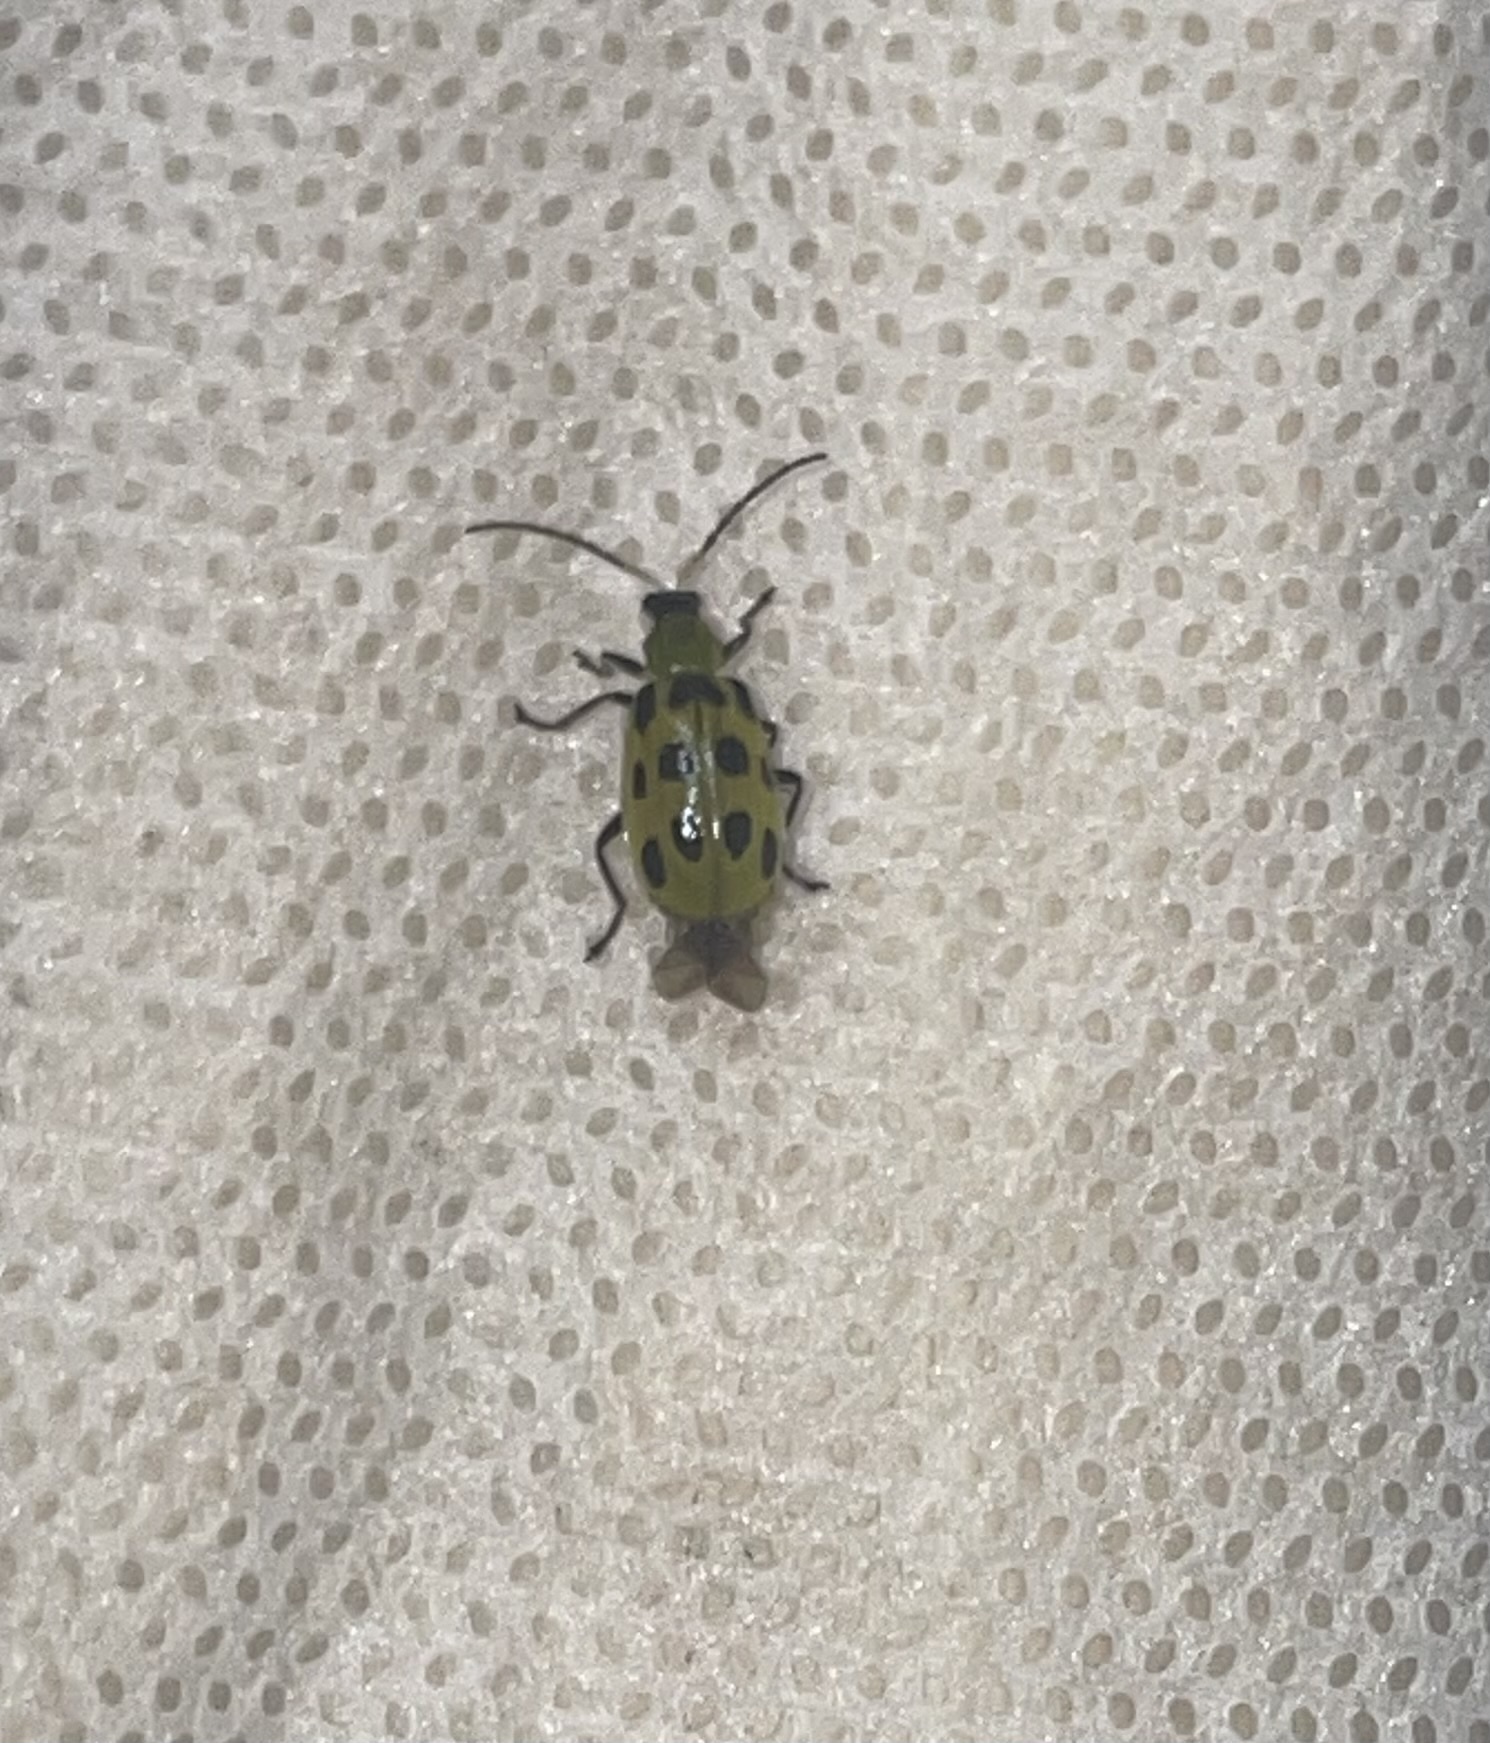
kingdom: Animalia
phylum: Arthropoda
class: Insecta
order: Coleoptera
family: Chrysomelidae
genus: Diabrotica
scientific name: Diabrotica undecimpunctata
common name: Spotted cucumber beetle
